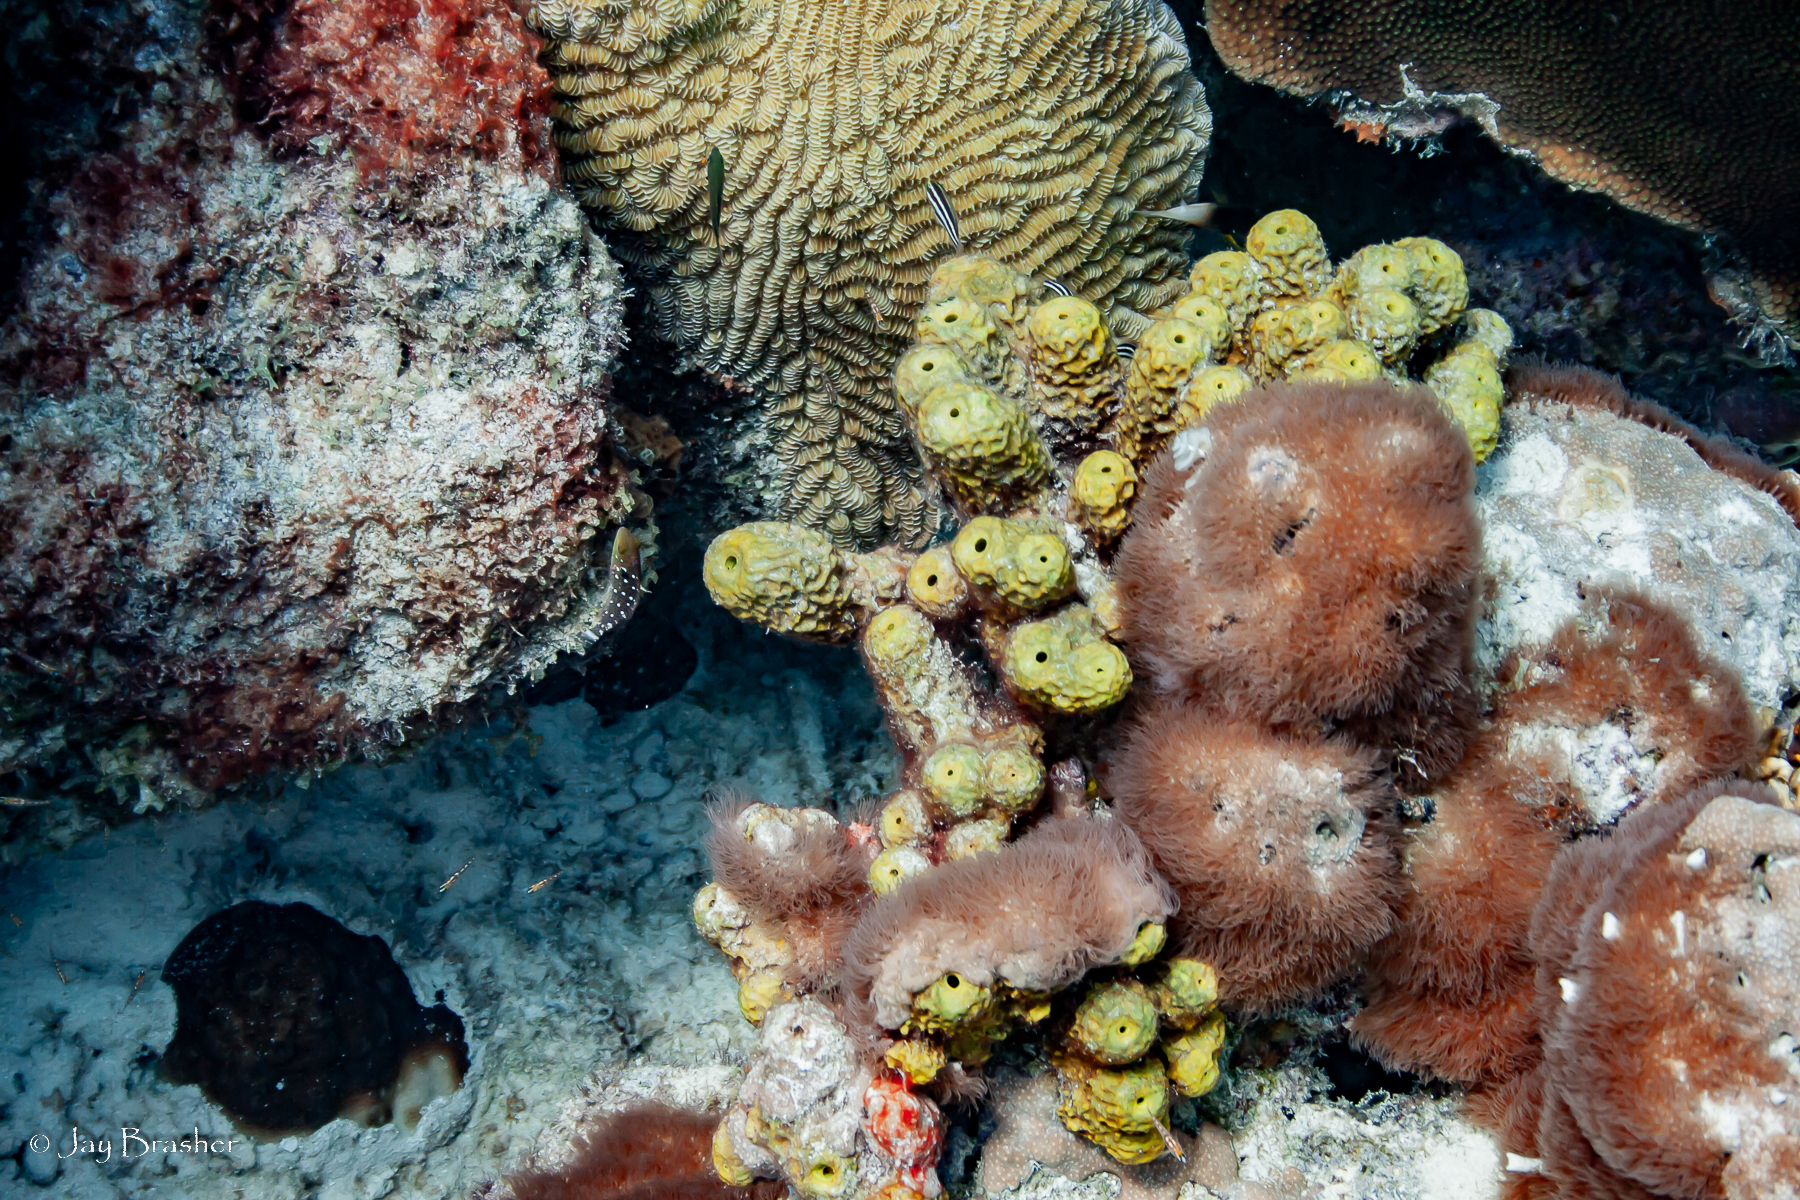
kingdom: Animalia
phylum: Porifera
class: Demospongiae
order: Verongiida
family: Aplysinidae
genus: Verongula
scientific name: Verongula rigida
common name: Pitted sponge
